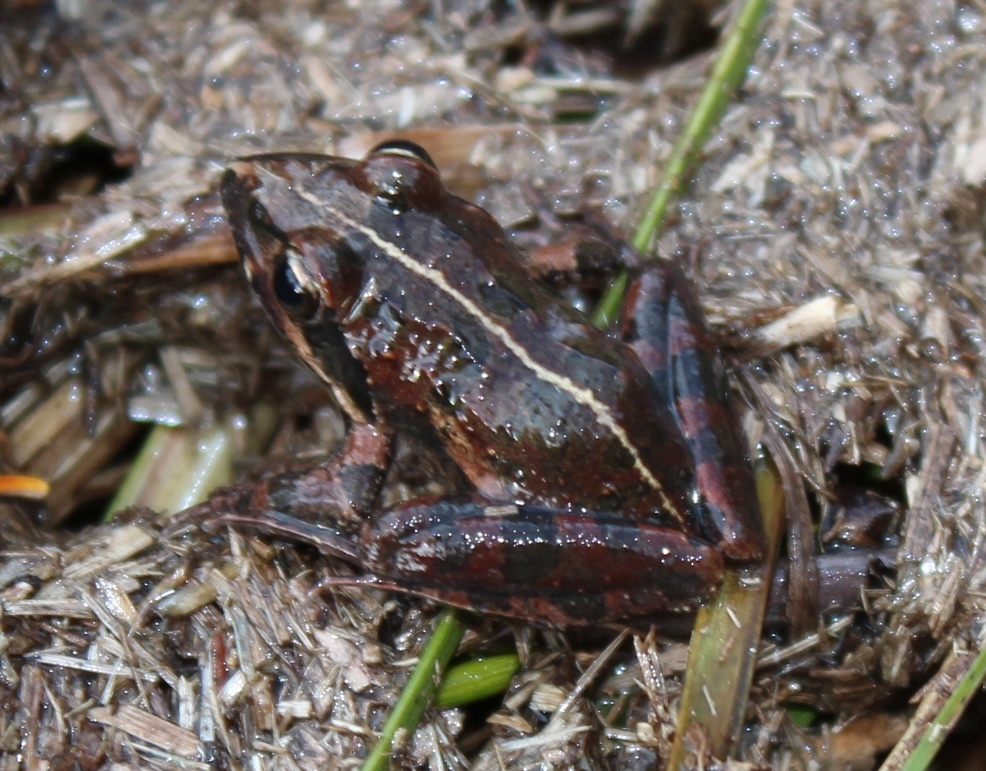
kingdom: Animalia
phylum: Chordata
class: Amphibia
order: Anura
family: Pyxicephalidae
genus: Strongylopus
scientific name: Strongylopus grayii
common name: Gray's stream frog
